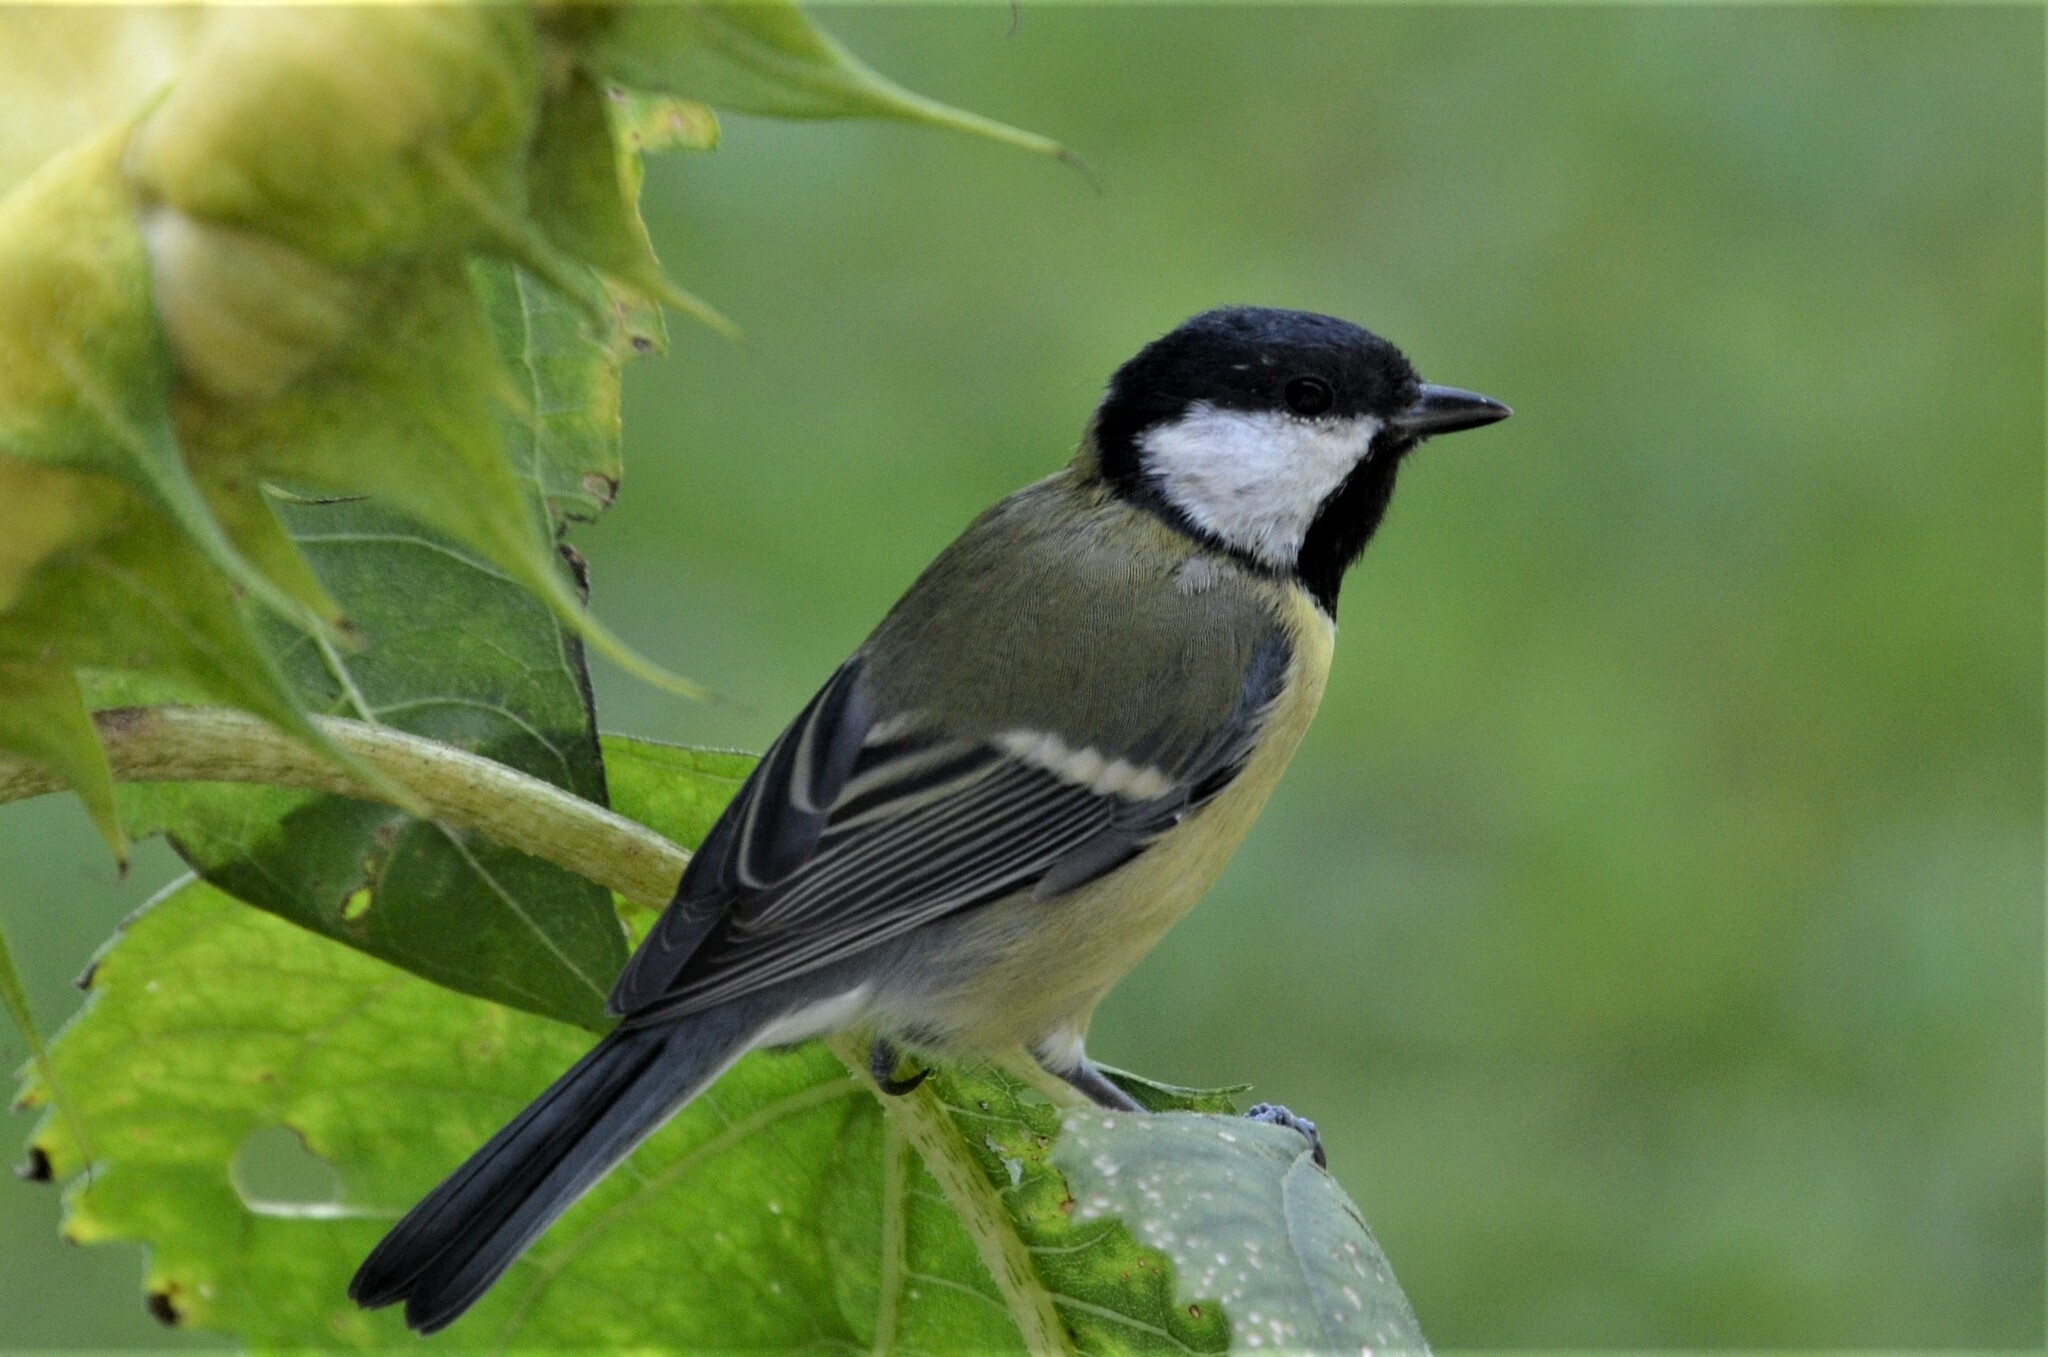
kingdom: Animalia
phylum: Chordata
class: Aves
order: Passeriformes
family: Paridae
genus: Parus
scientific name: Parus major
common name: Great tit
